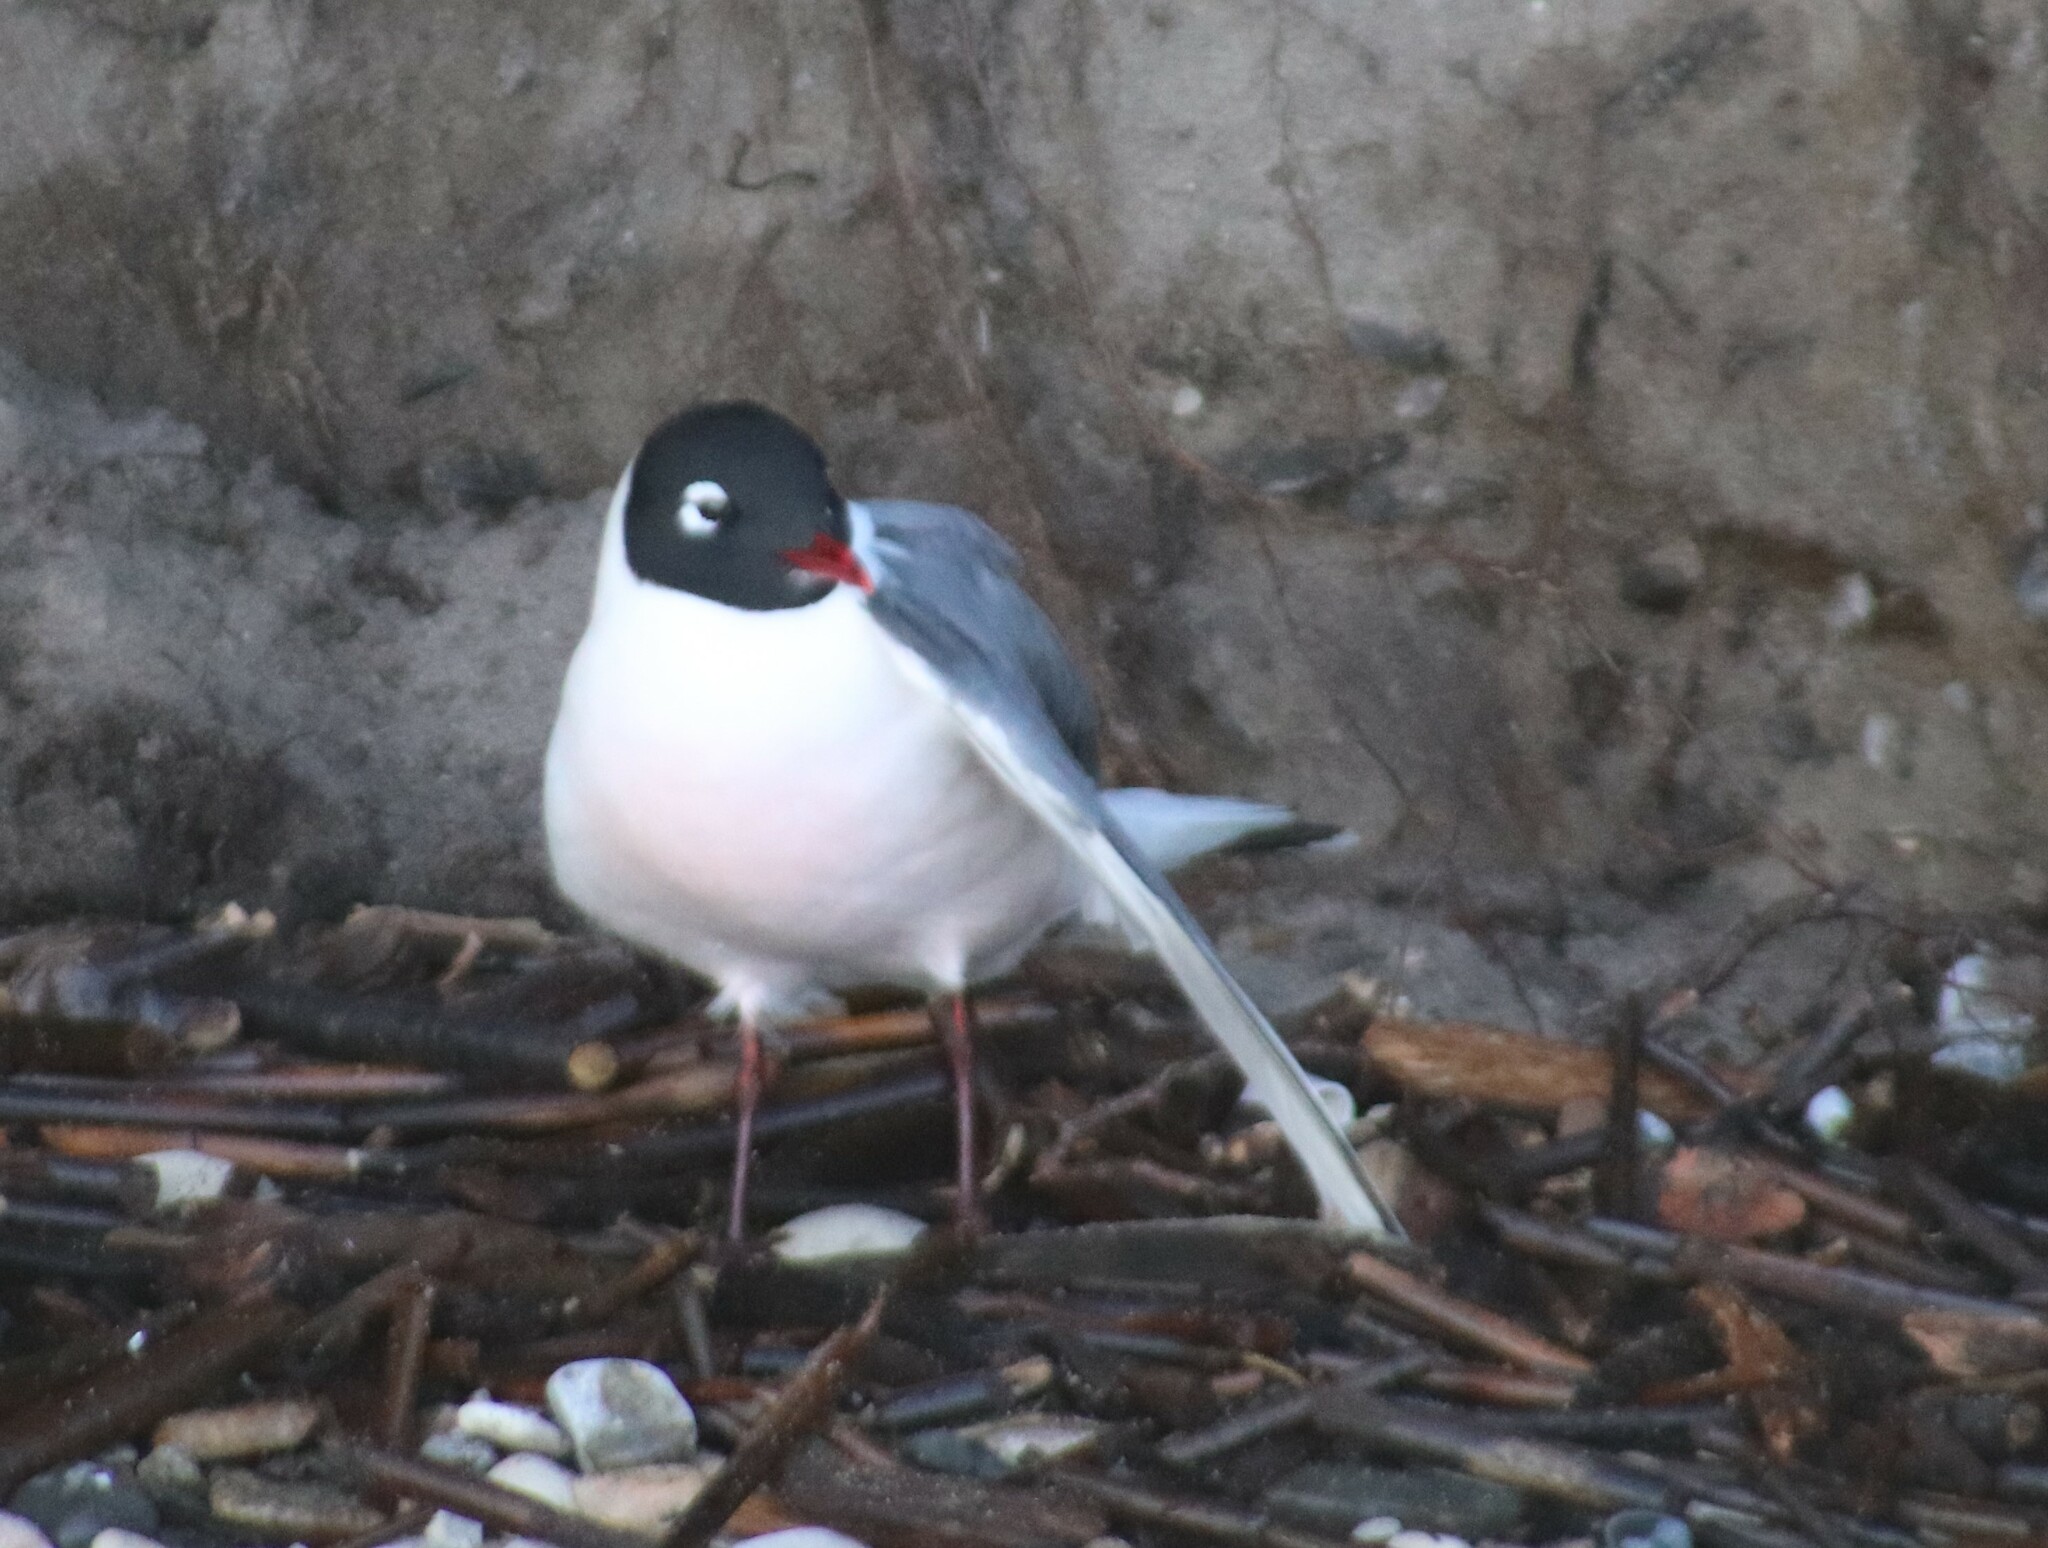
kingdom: Animalia
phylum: Chordata
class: Aves
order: Charadriiformes
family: Laridae
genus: Leucophaeus
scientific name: Leucophaeus pipixcan
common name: Franklin's gull
